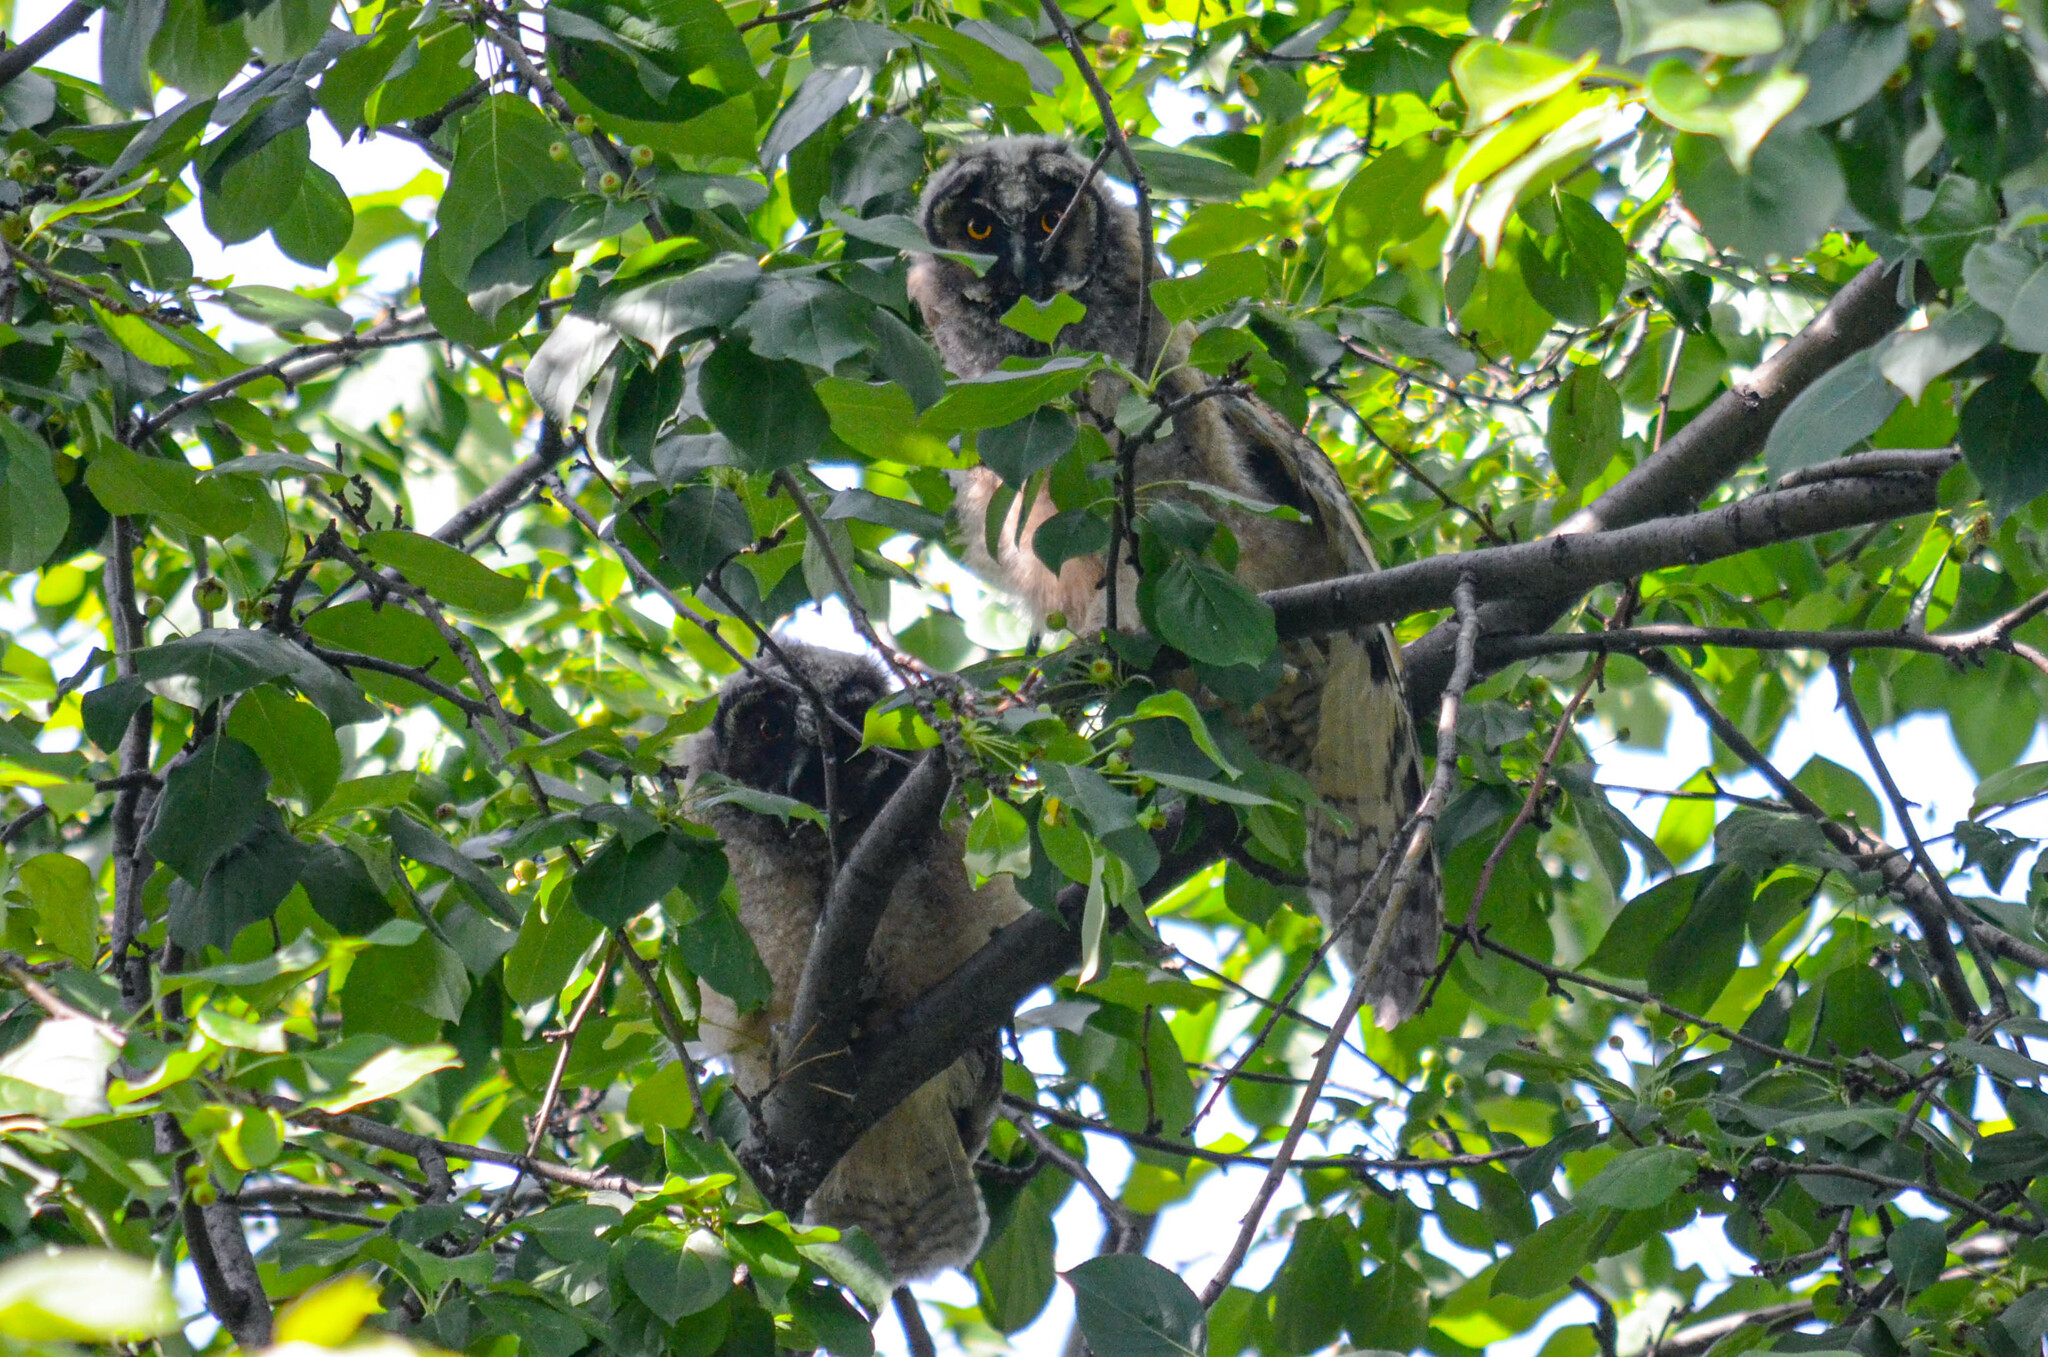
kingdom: Animalia
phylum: Chordata
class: Aves
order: Strigiformes
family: Strigidae
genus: Asio
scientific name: Asio otus
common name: Long-eared owl
